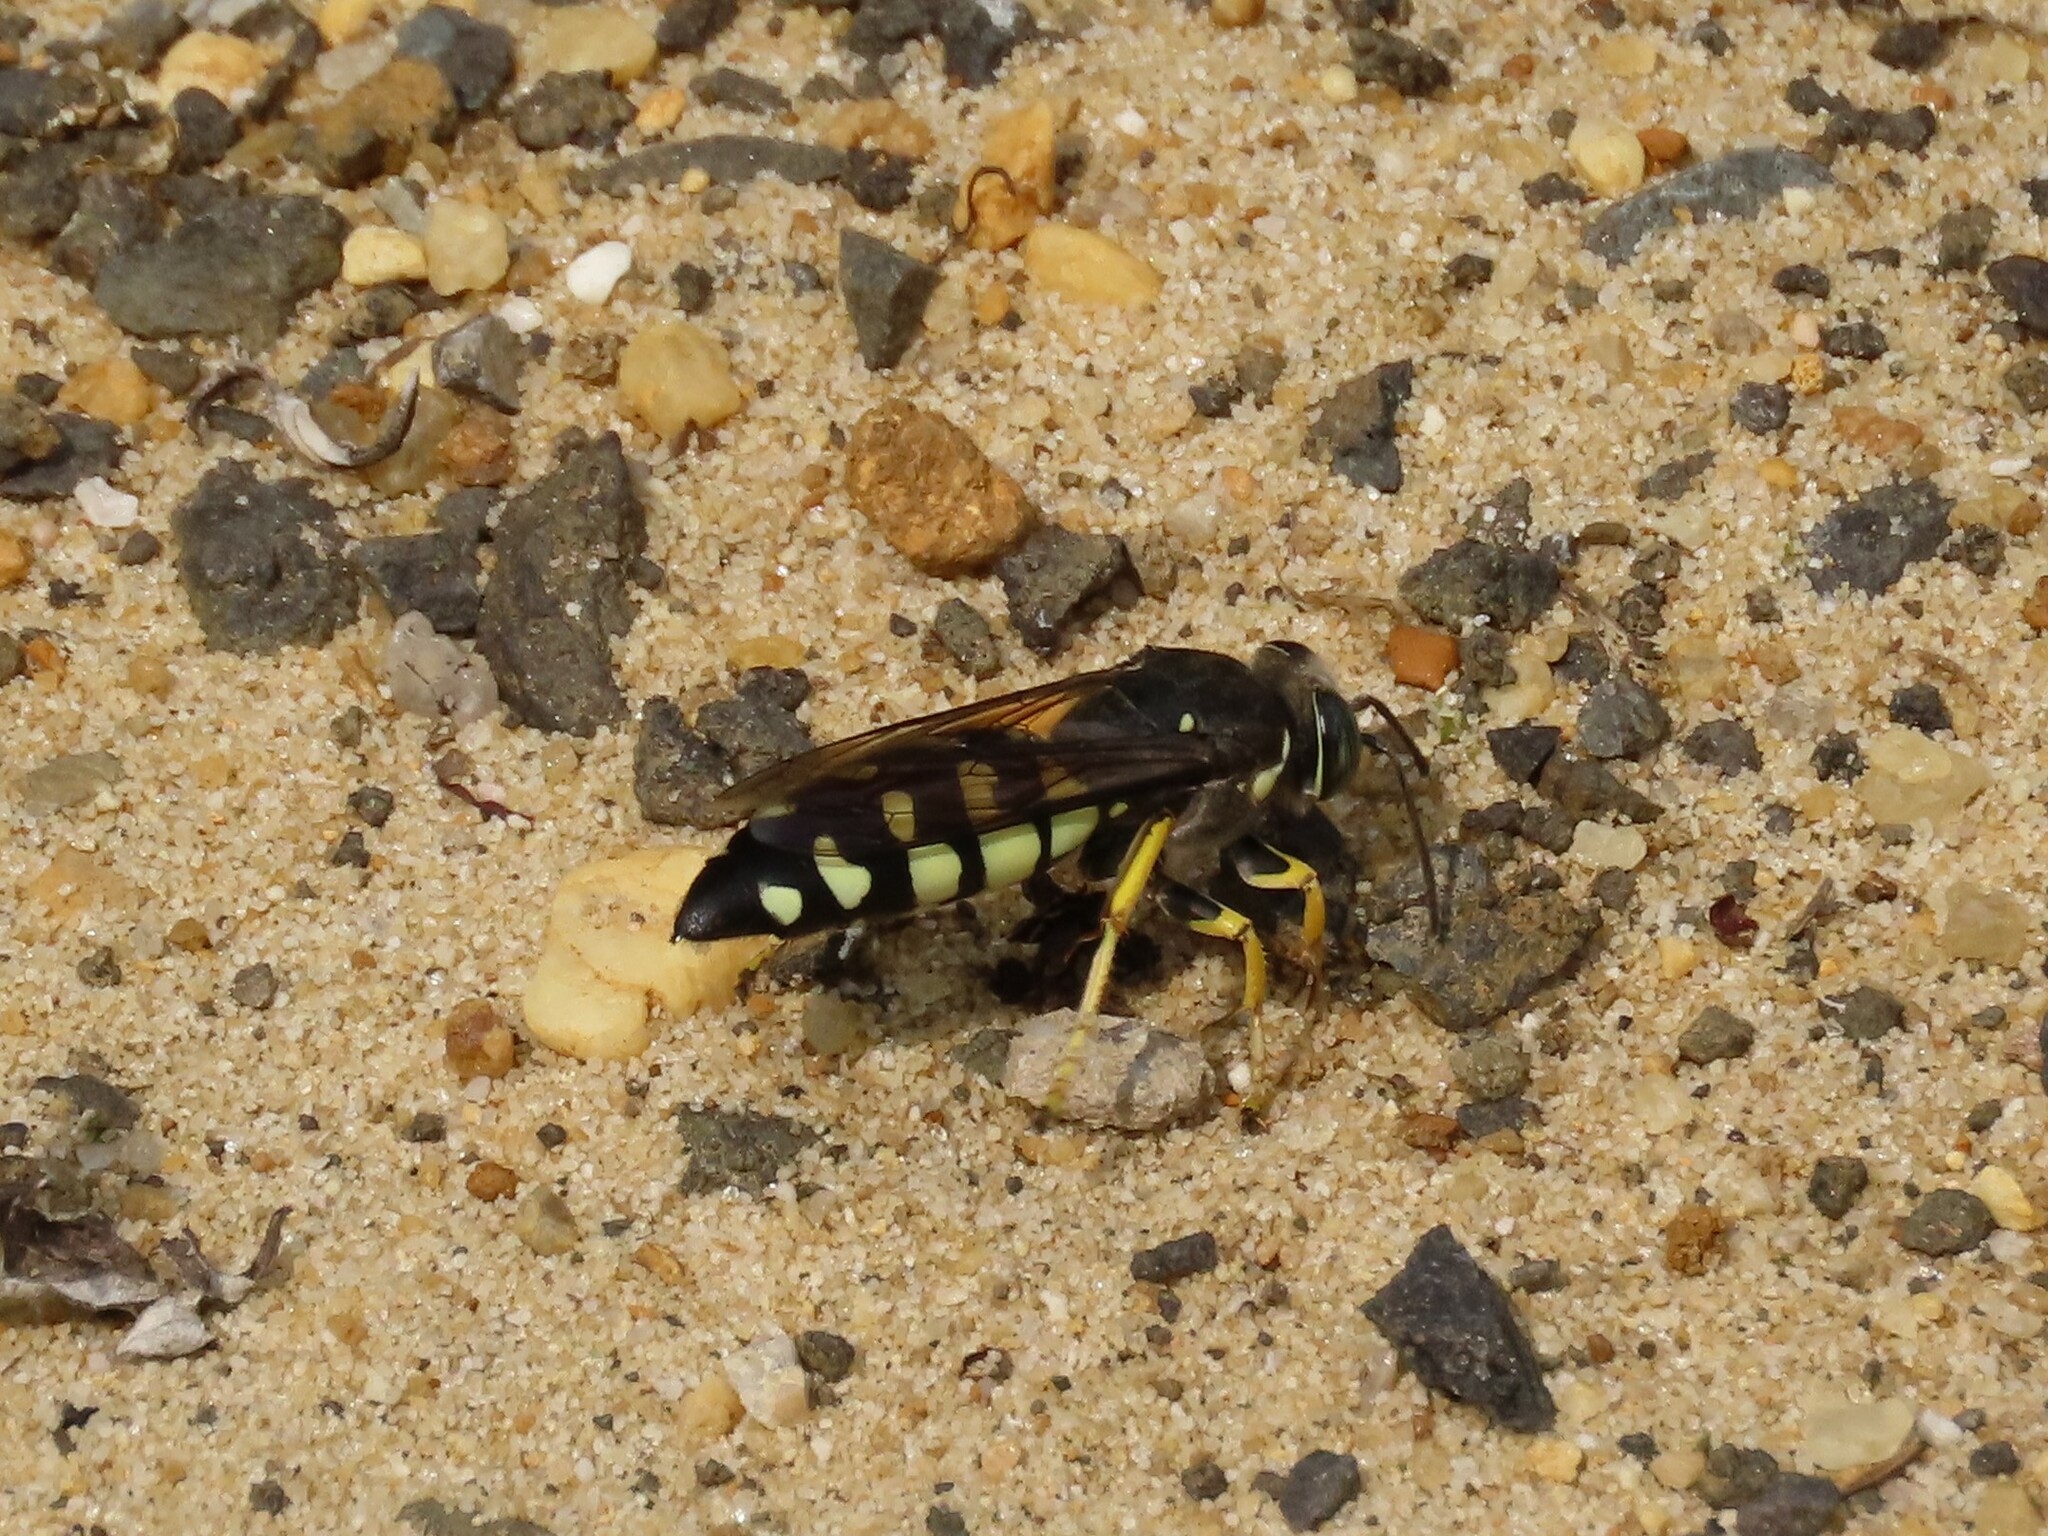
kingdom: Animalia
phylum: Arthropoda
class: Insecta
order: Hymenoptera
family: Crabronidae
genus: Stictia
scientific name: Stictia carolina
